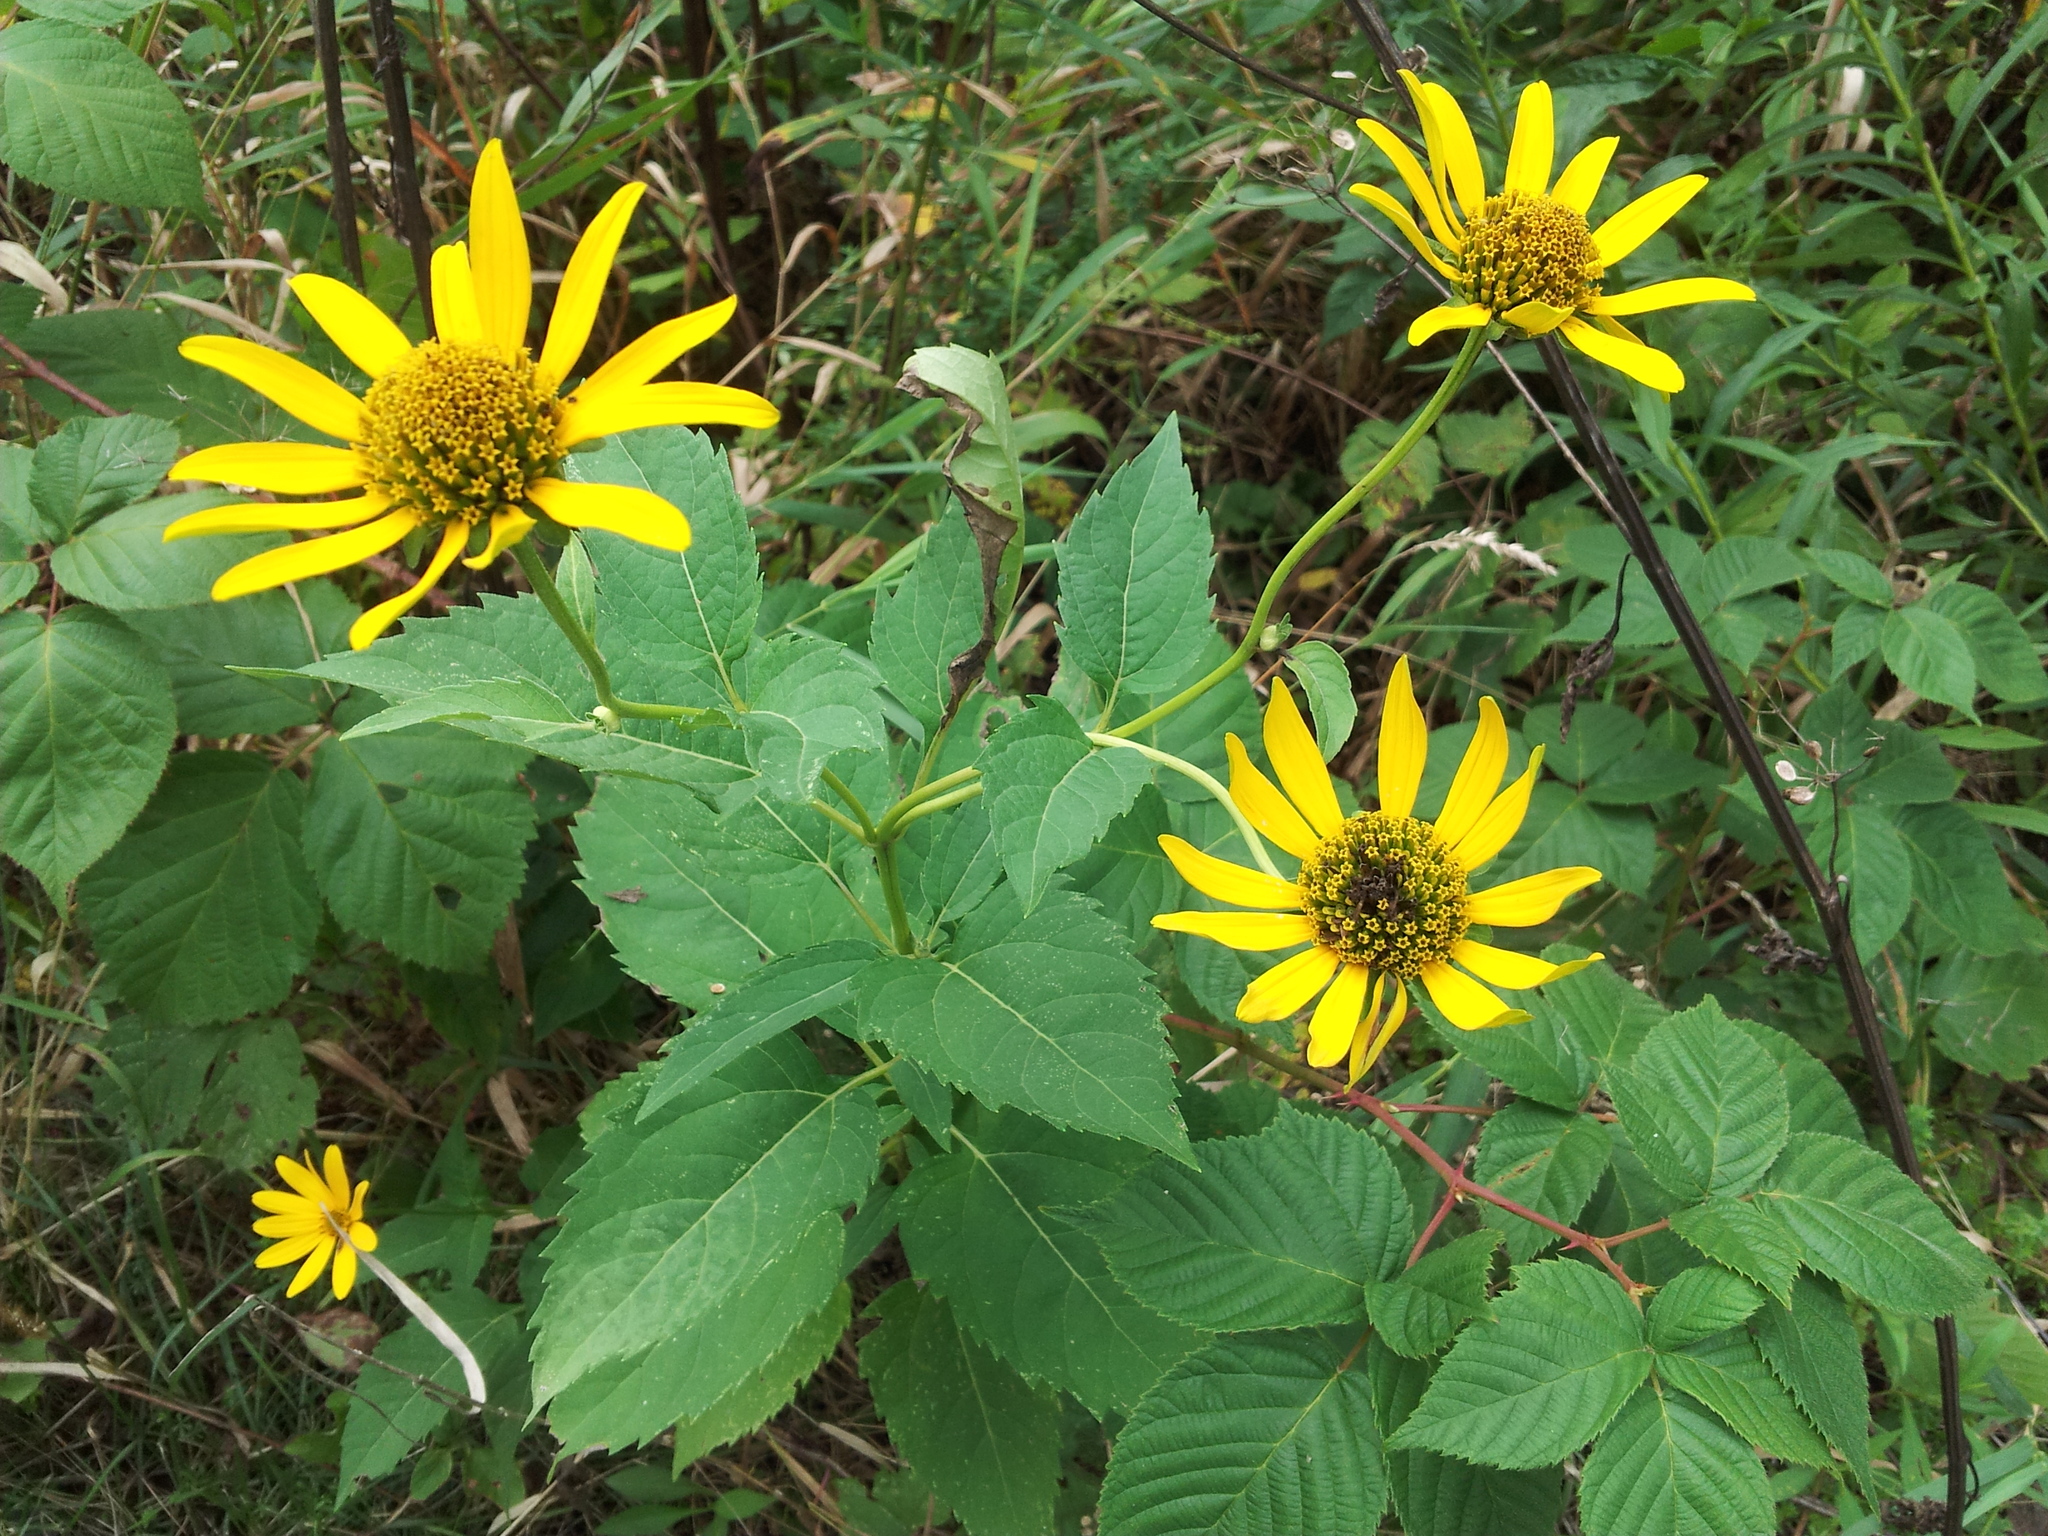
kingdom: Plantae
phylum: Tracheophyta
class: Magnoliopsida
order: Asterales
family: Asteraceae
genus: Heliopsis
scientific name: Heliopsis helianthoides
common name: False sunflower
